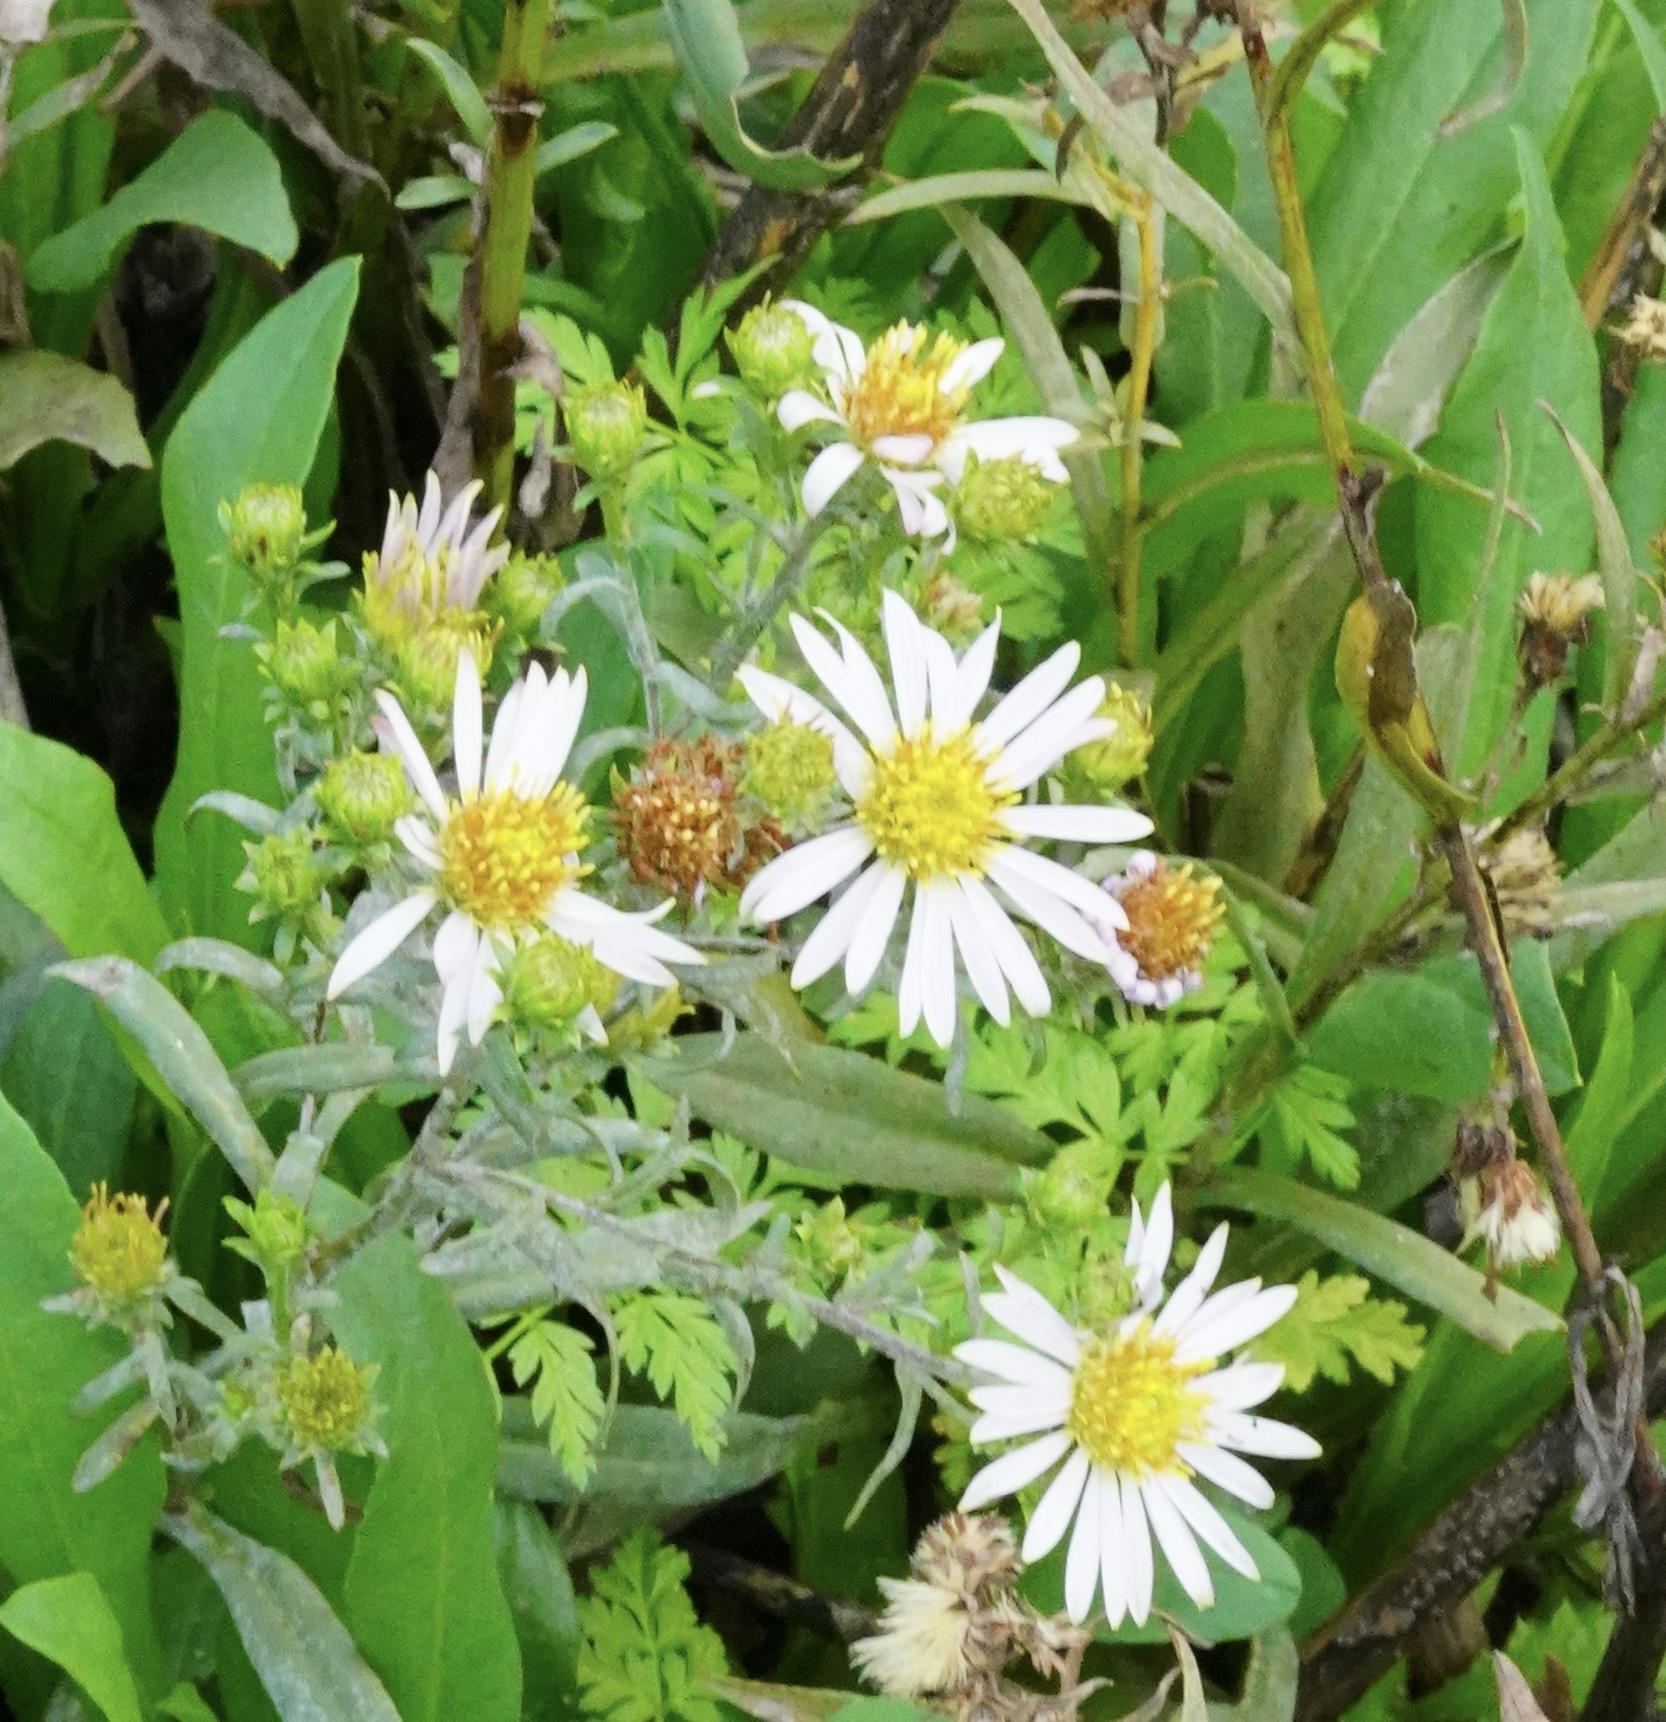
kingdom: Plantae
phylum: Tracheophyta
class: Magnoliopsida
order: Asterales
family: Asteraceae
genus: Symphyotrichum
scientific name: Symphyotrichum chilense
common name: Pacific aster
